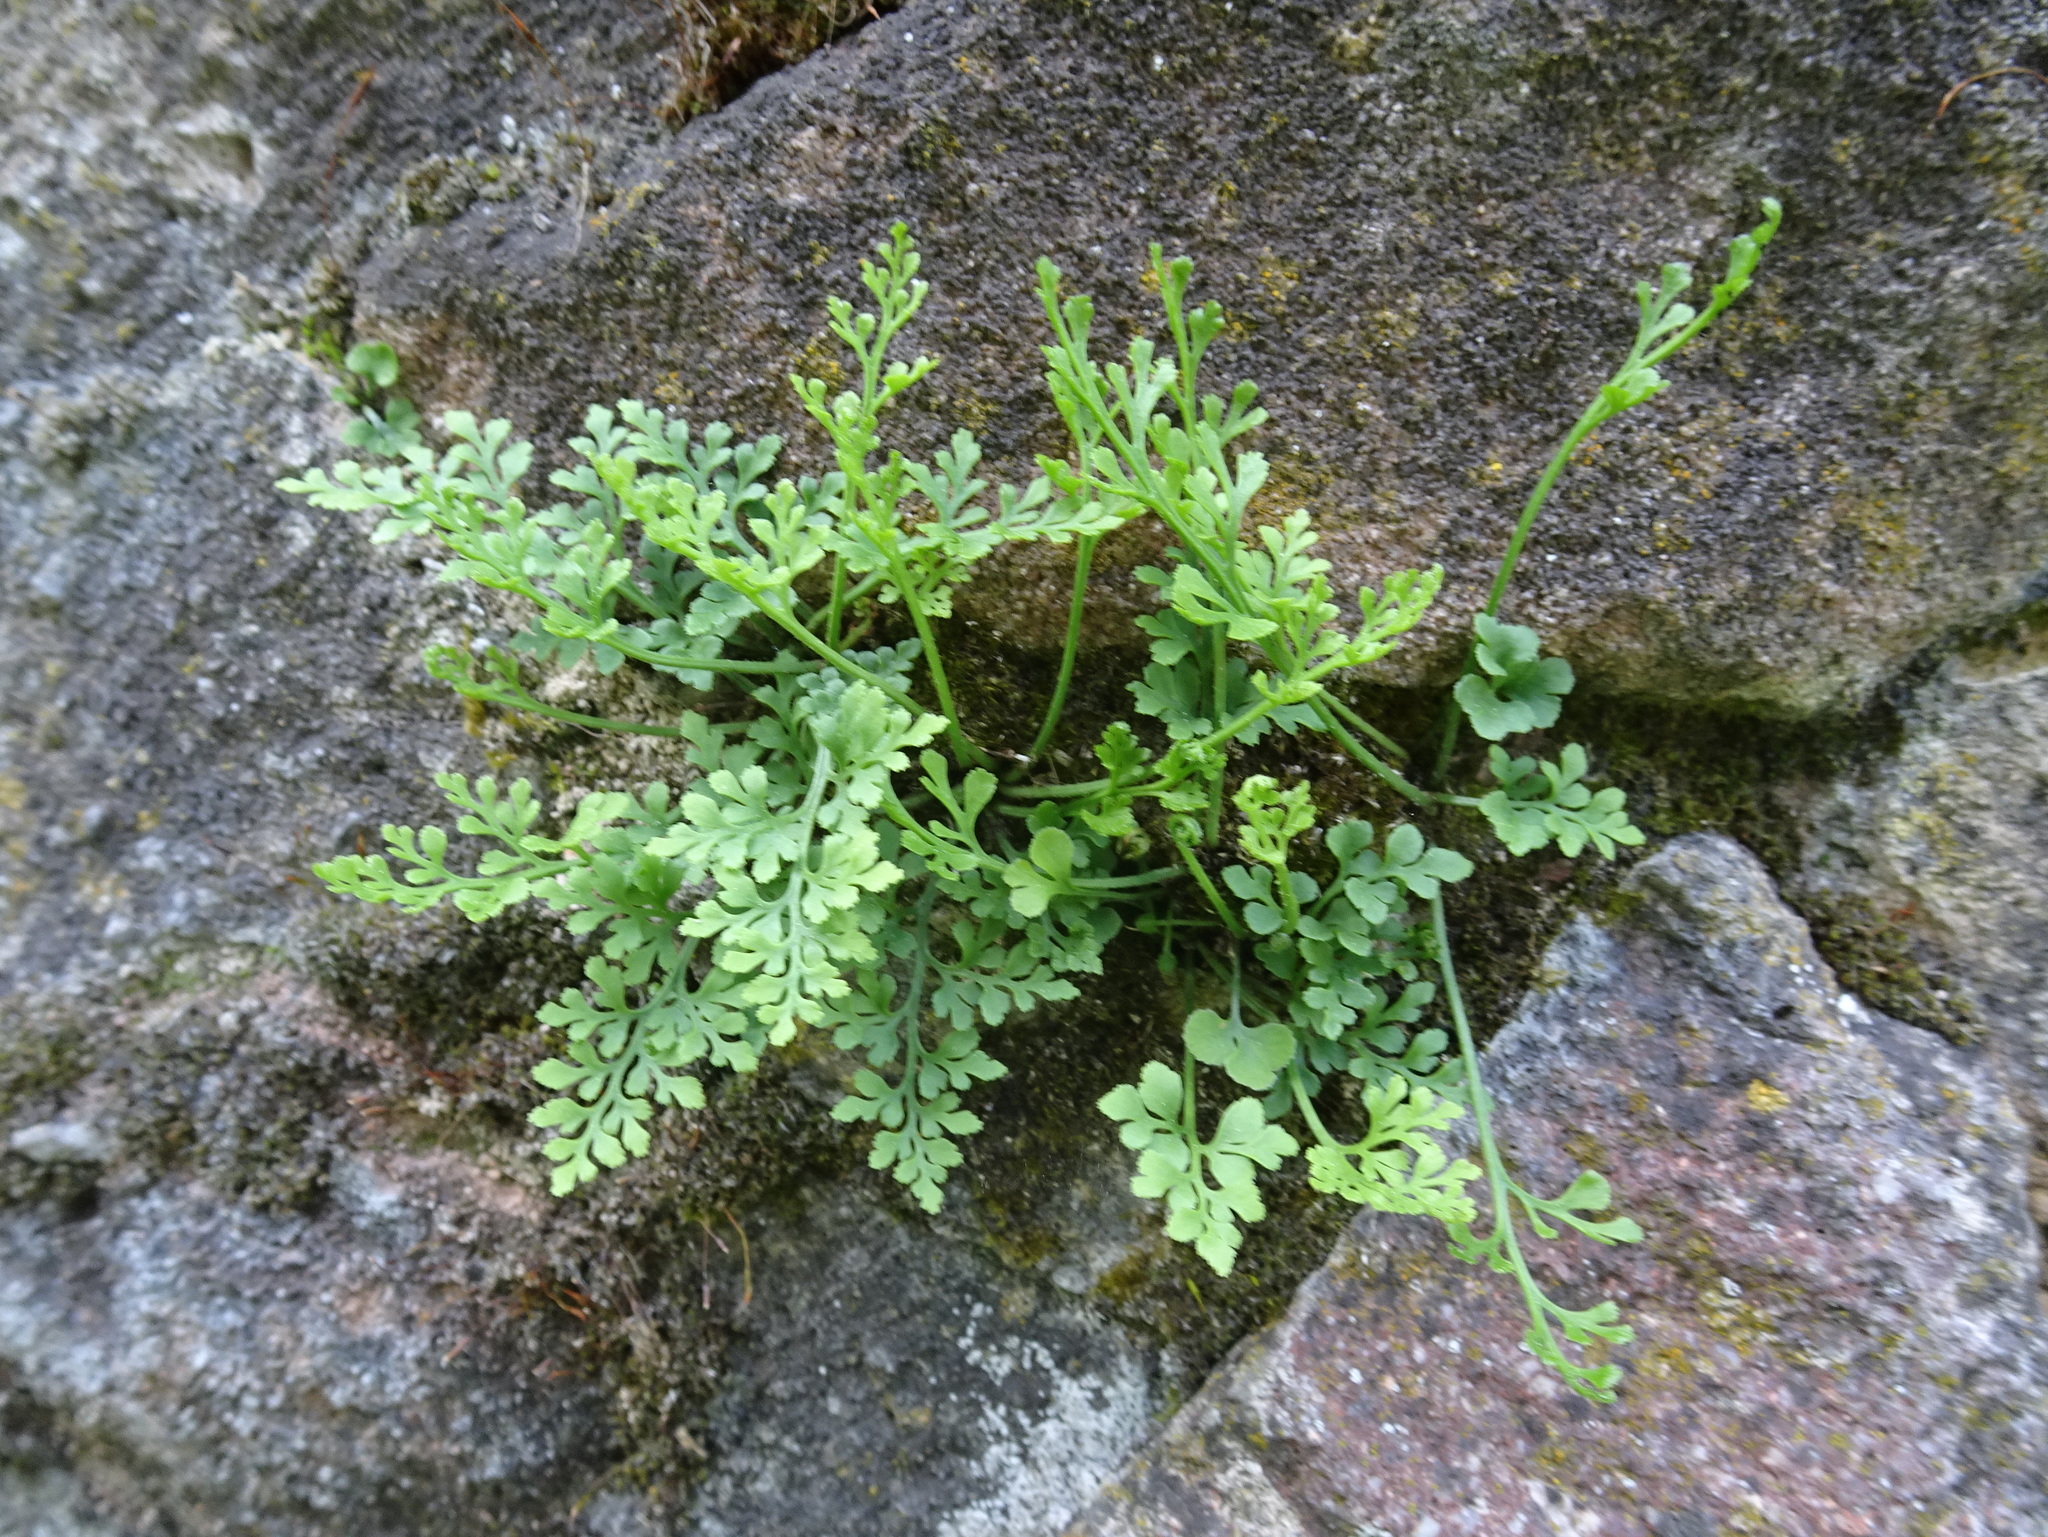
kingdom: Plantae
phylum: Tracheophyta
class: Polypodiopsida
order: Polypodiales
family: Aspleniaceae
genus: Asplenium
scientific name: Asplenium ruta-muraria
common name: Wall-rue
